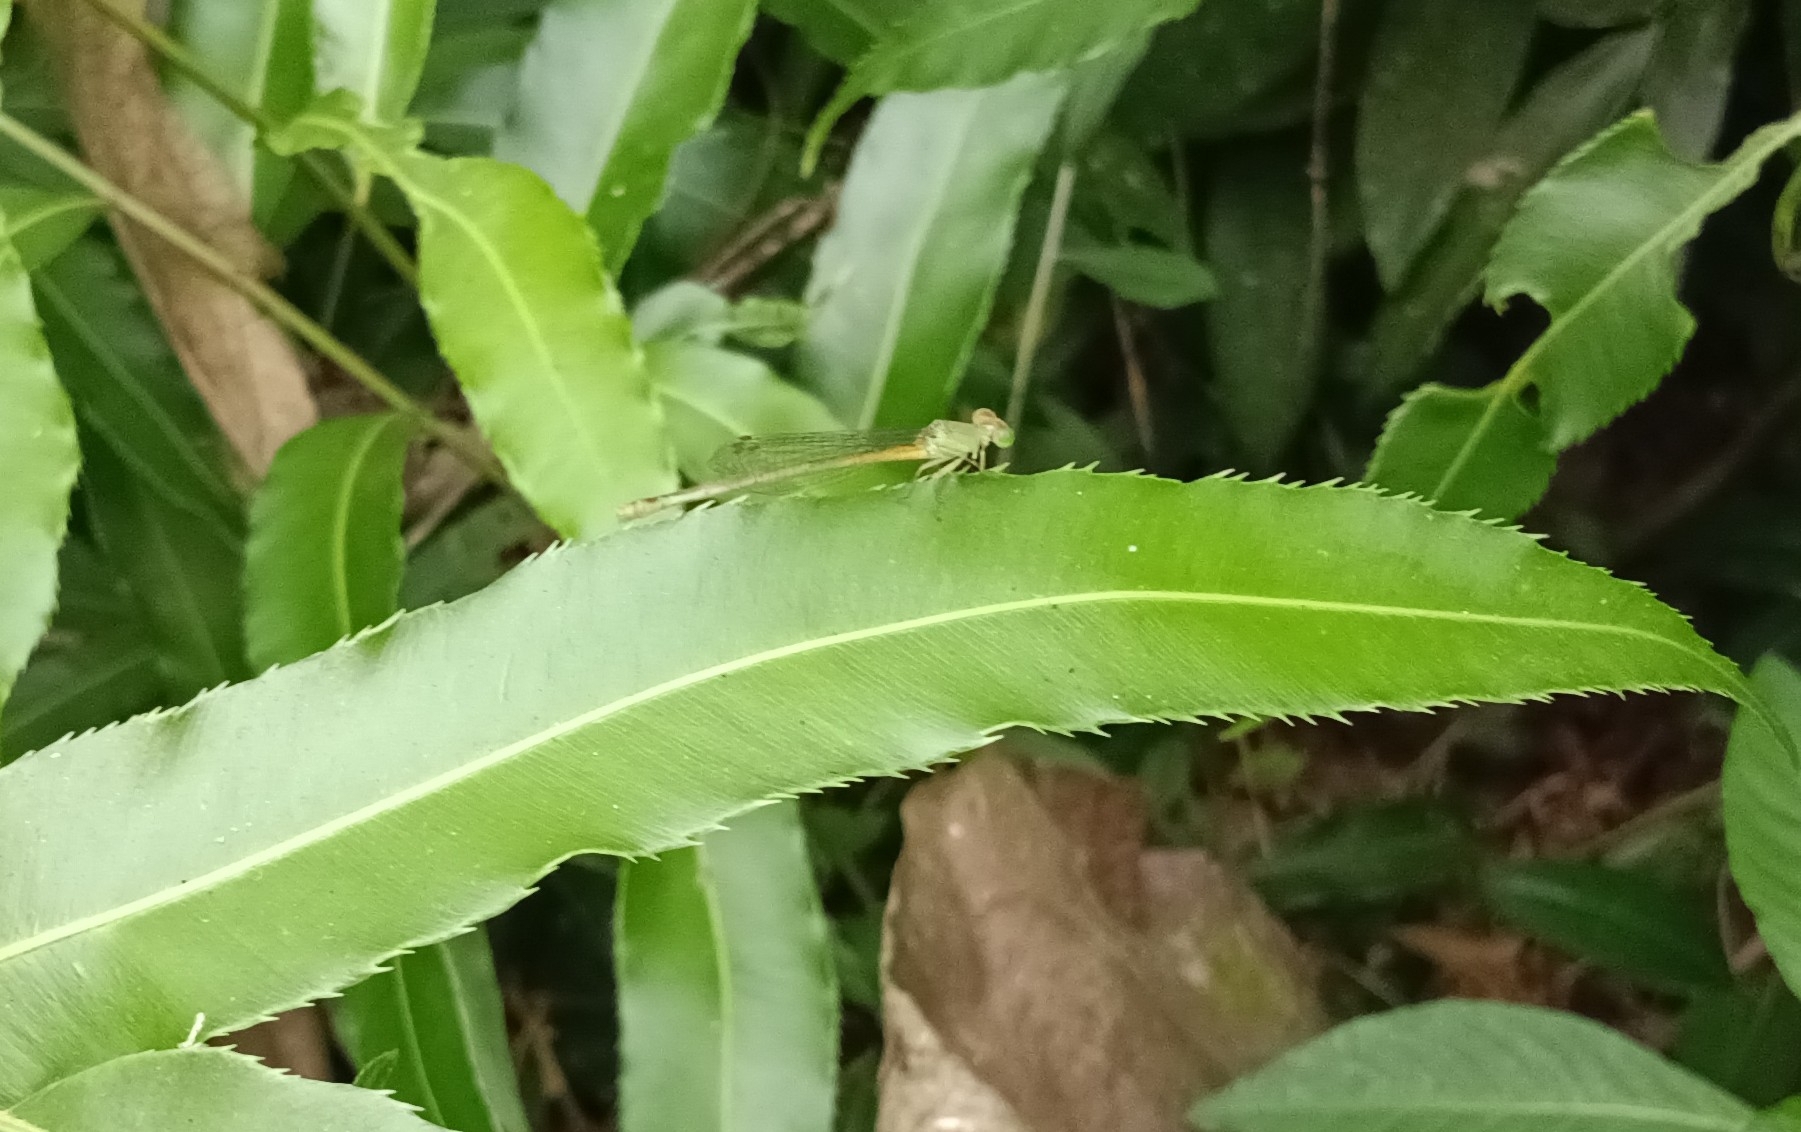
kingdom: Animalia
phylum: Arthropoda
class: Insecta
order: Odonata
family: Coenagrionidae
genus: Ceriagrion
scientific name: Ceriagrion coromandelianum
